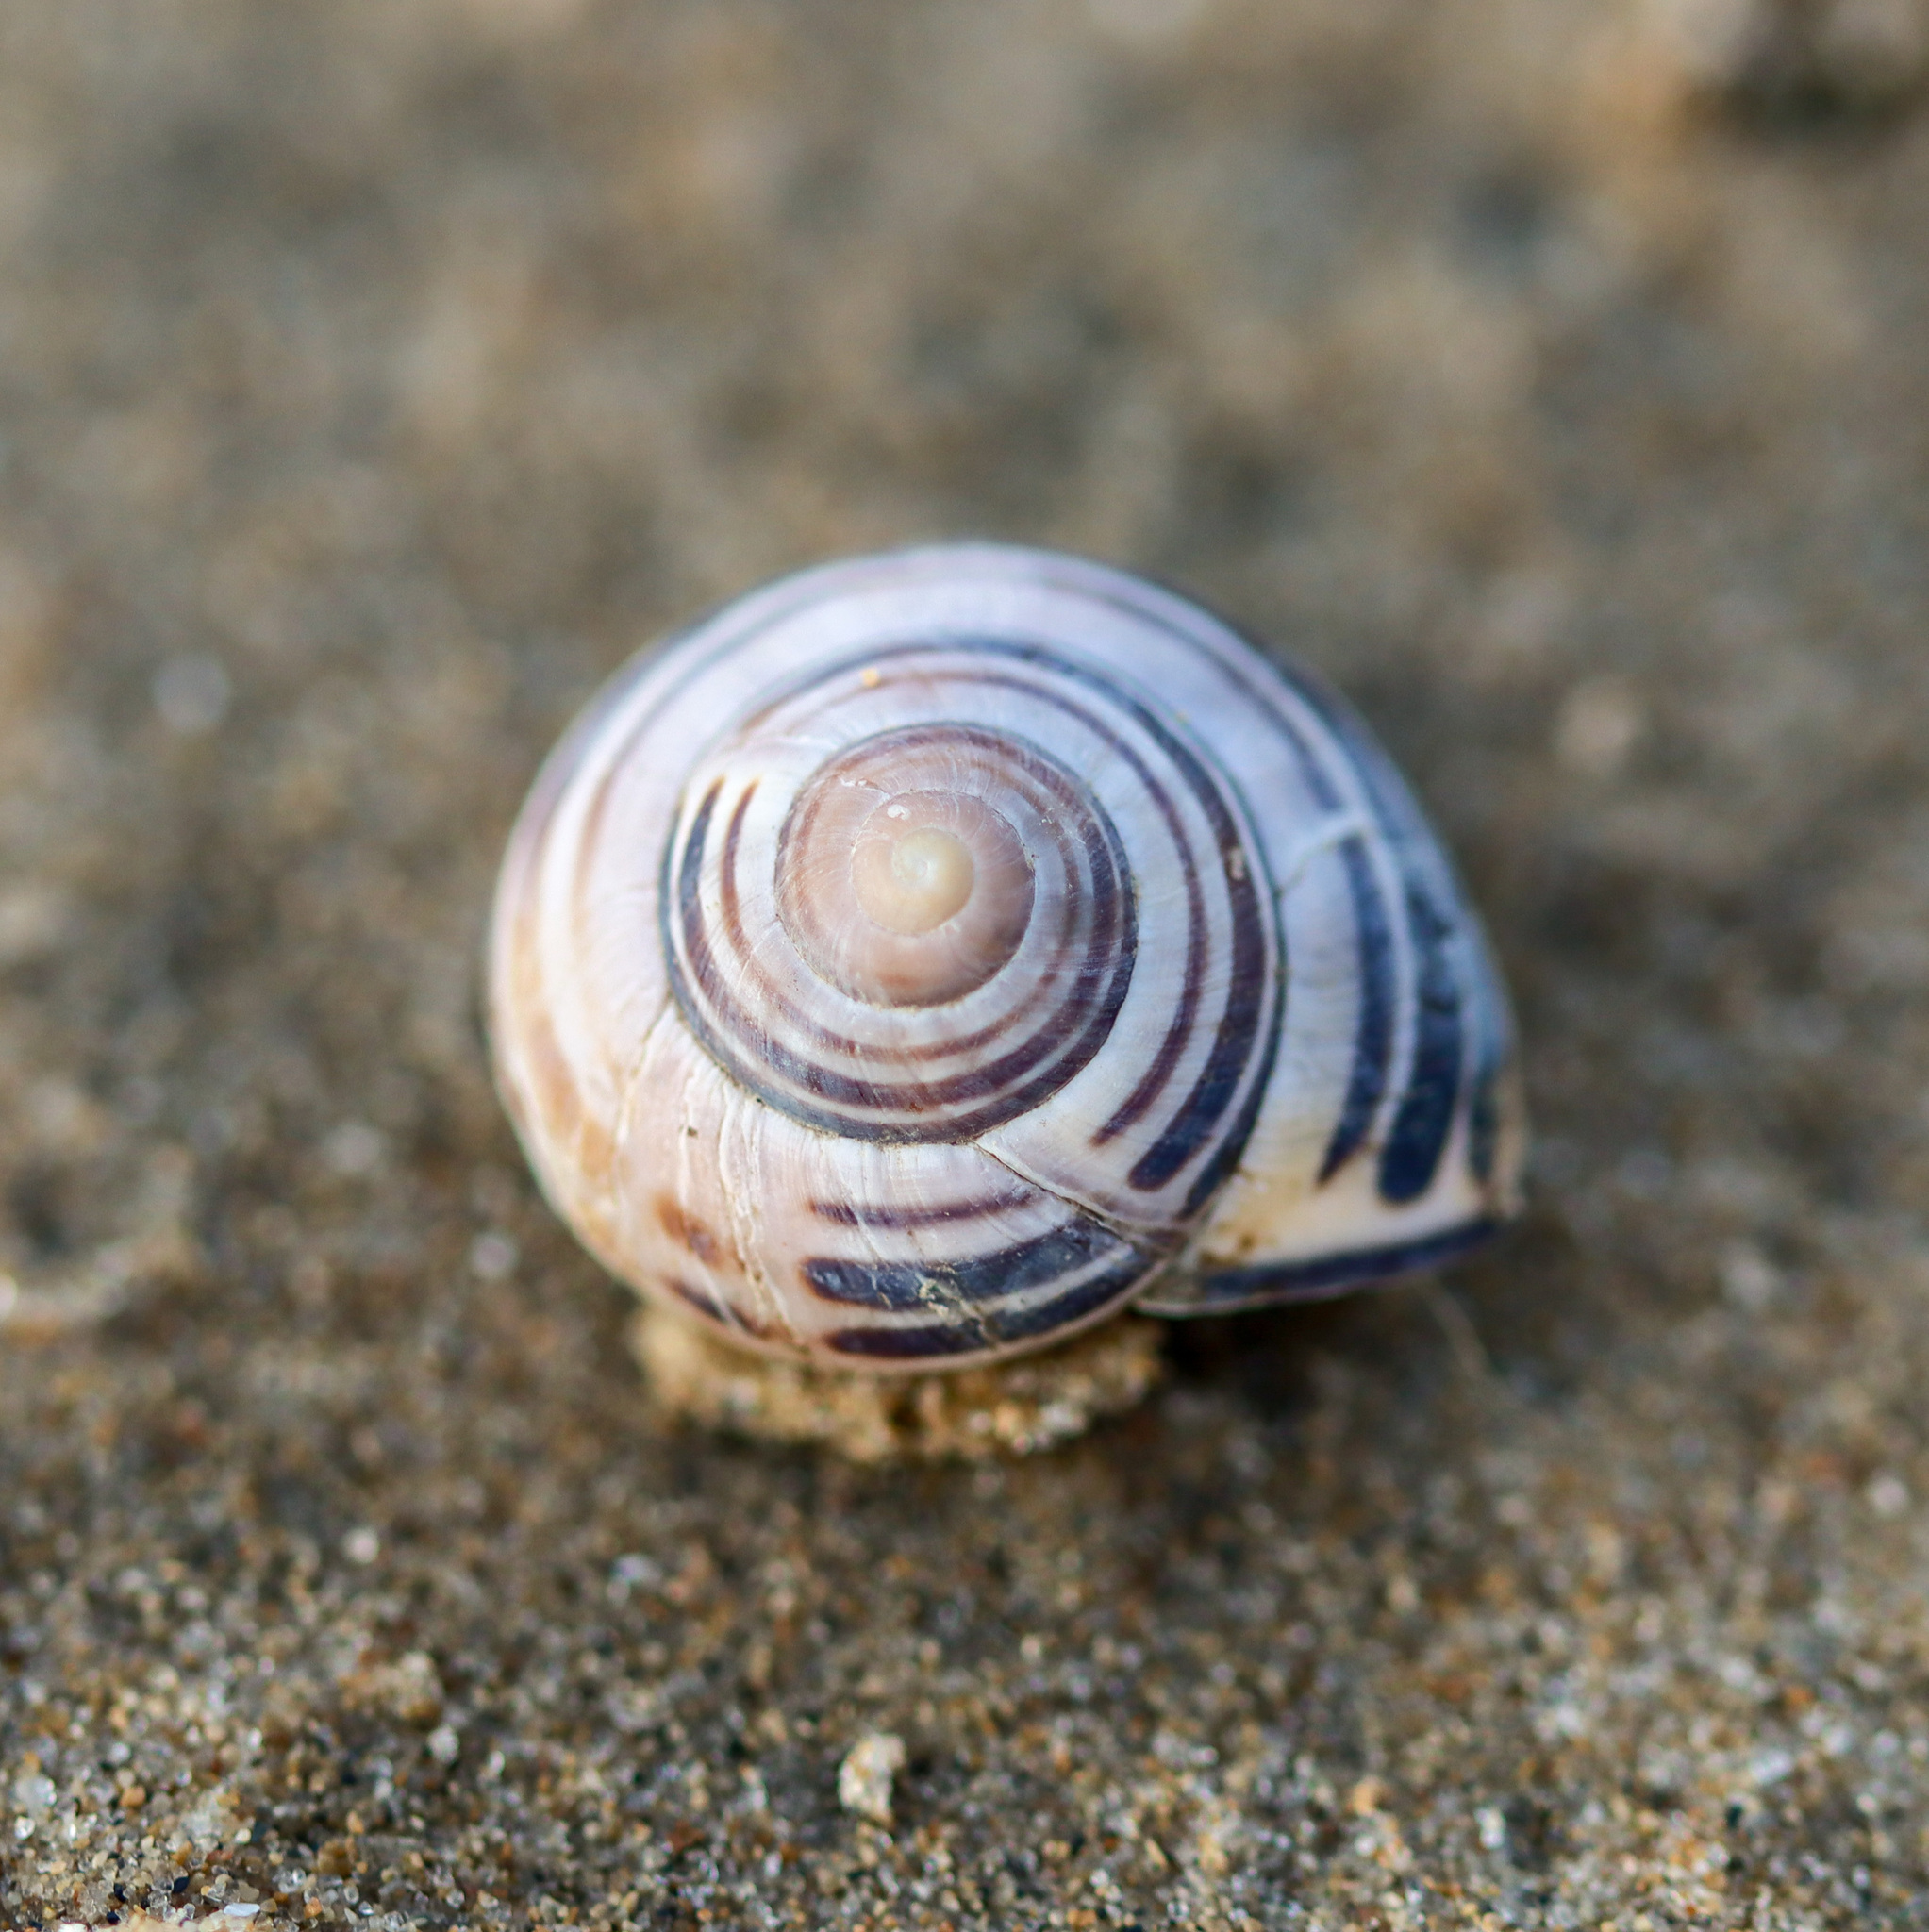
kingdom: Animalia
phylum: Mollusca
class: Gastropoda
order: Stylommatophora
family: Helicidae
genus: Cepaea
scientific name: Cepaea nemoralis
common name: Grovesnail
